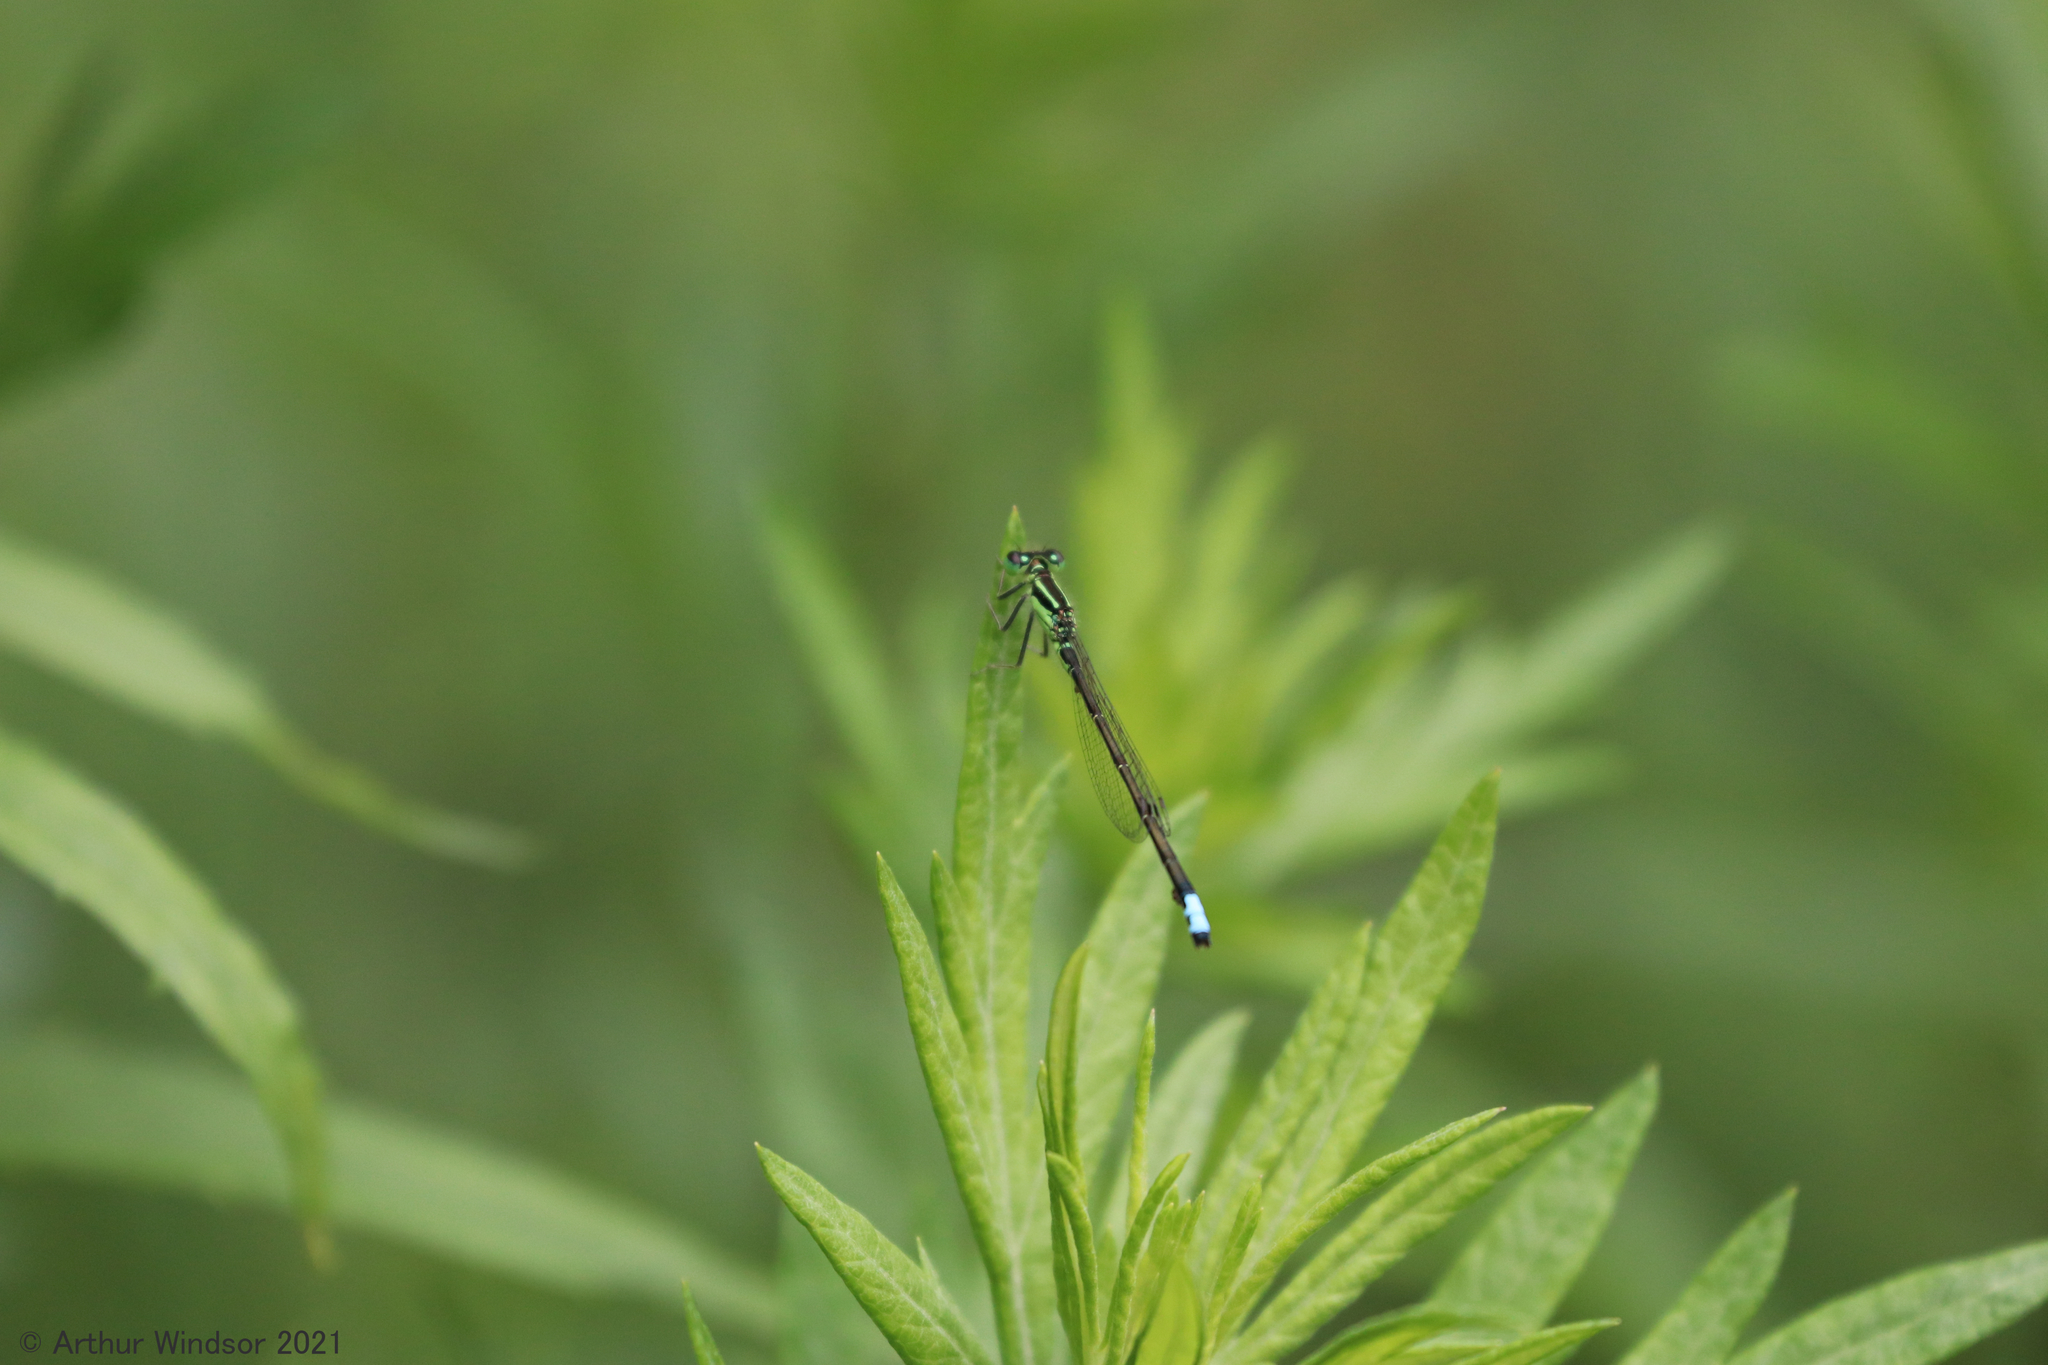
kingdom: Animalia
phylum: Arthropoda
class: Insecta
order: Odonata
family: Coenagrionidae
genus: Ischnura
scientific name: Ischnura verticalis
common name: Eastern forktail
